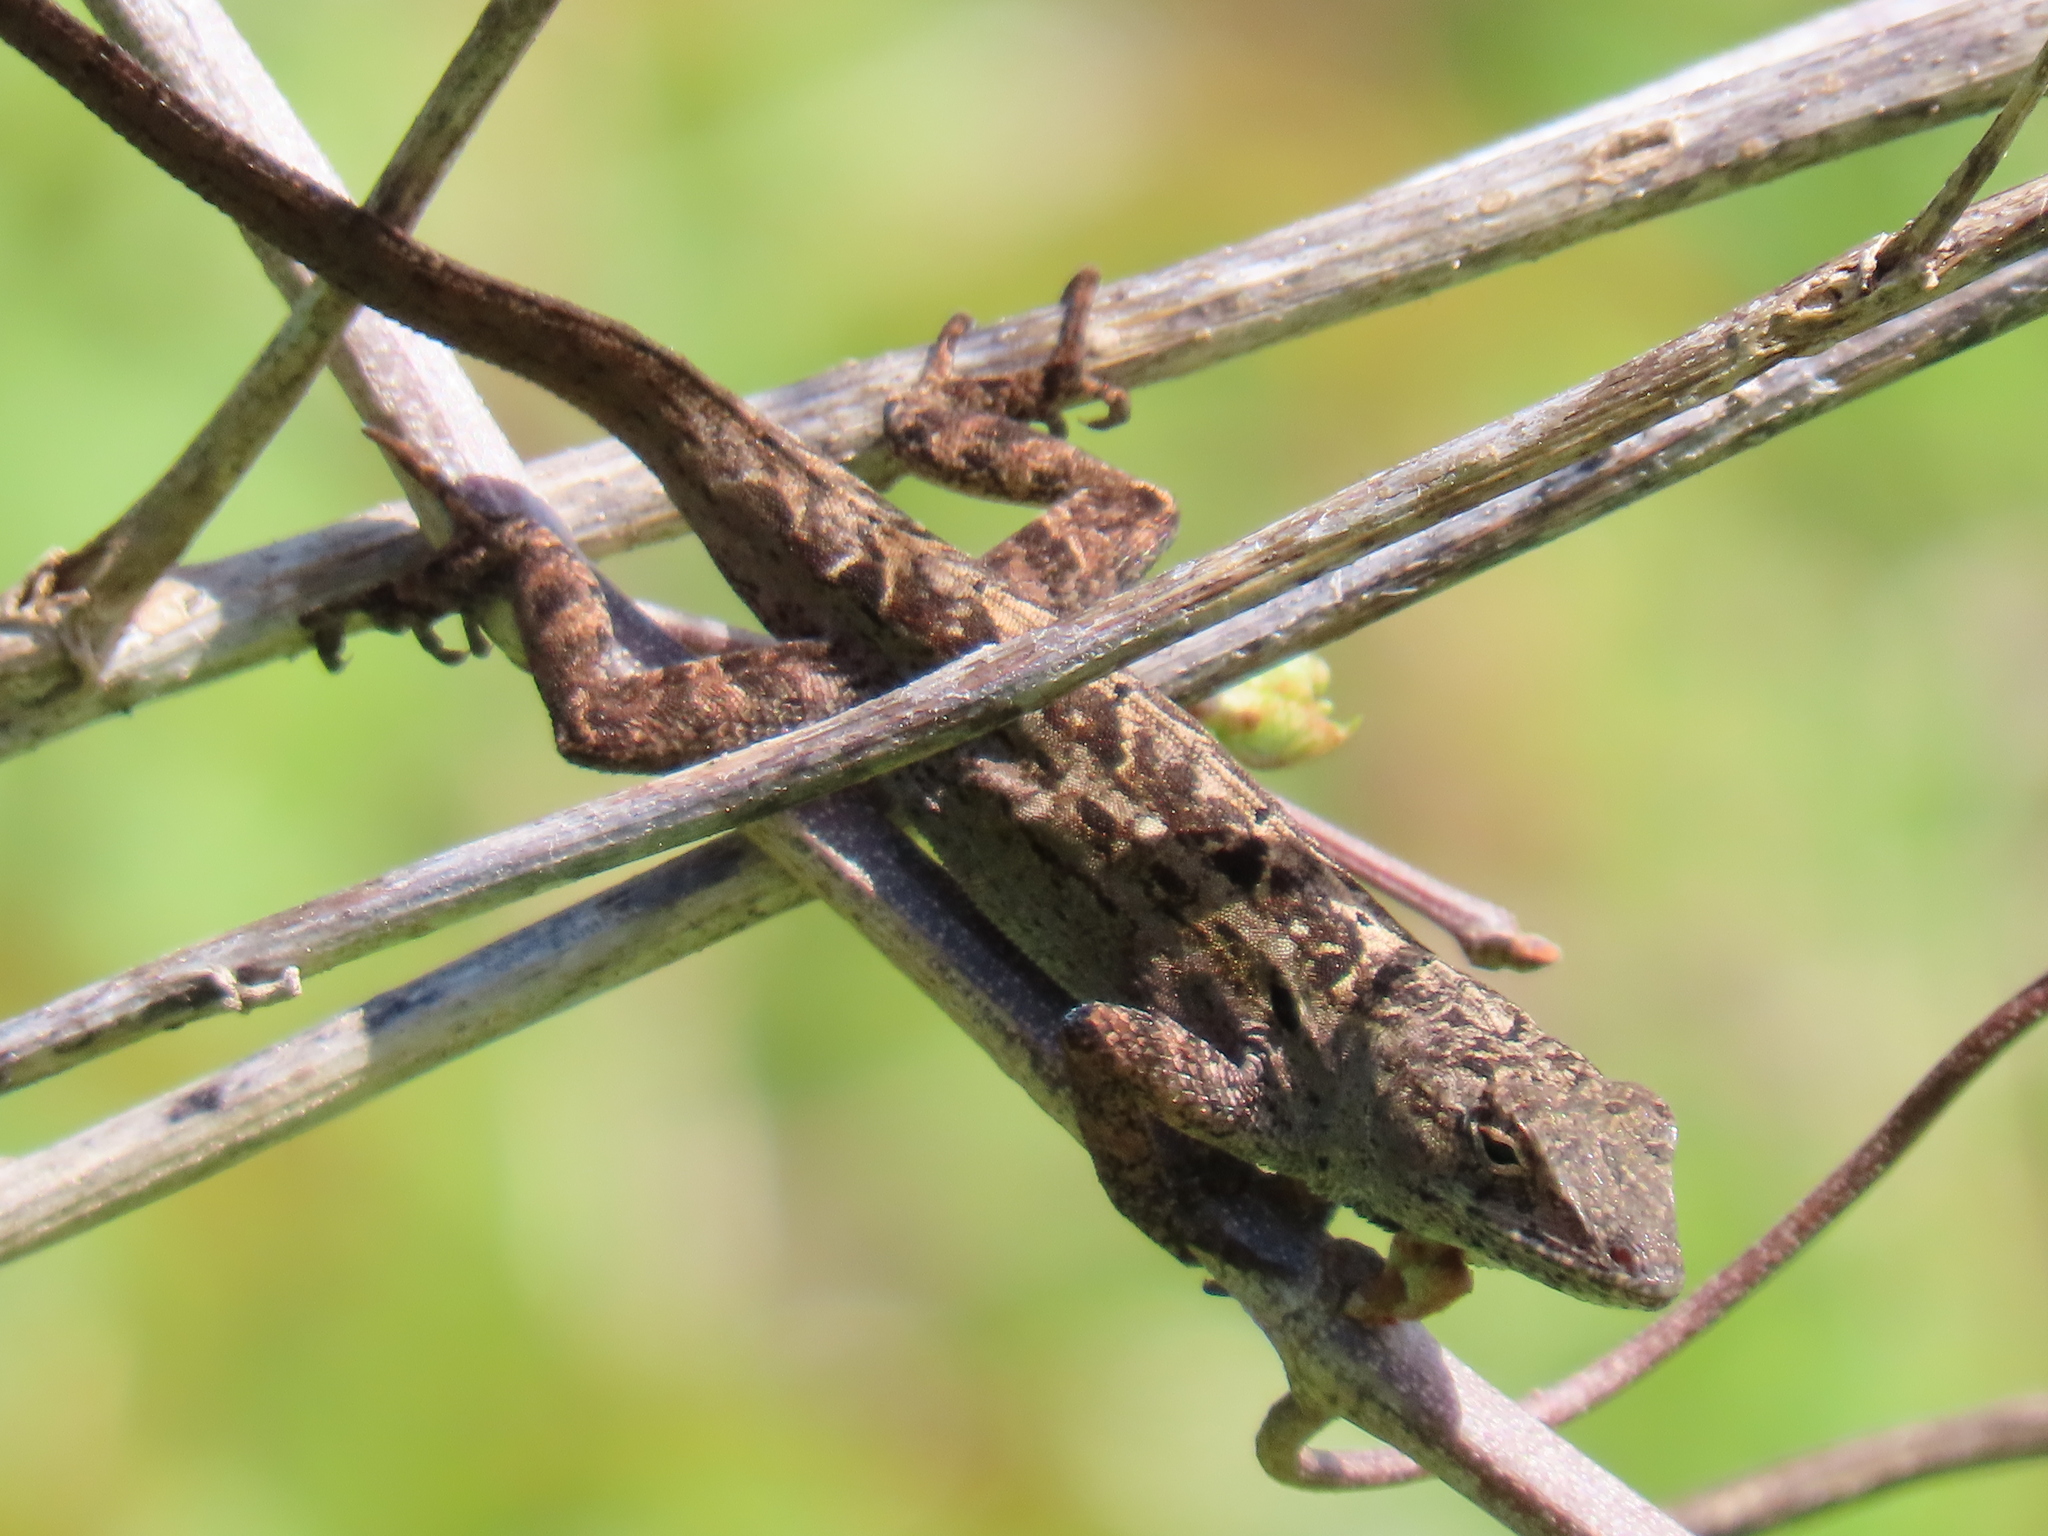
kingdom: Animalia
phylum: Chordata
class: Squamata
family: Dactyloidae
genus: Anolis
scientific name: Anolis sagrei
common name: Brown anole
